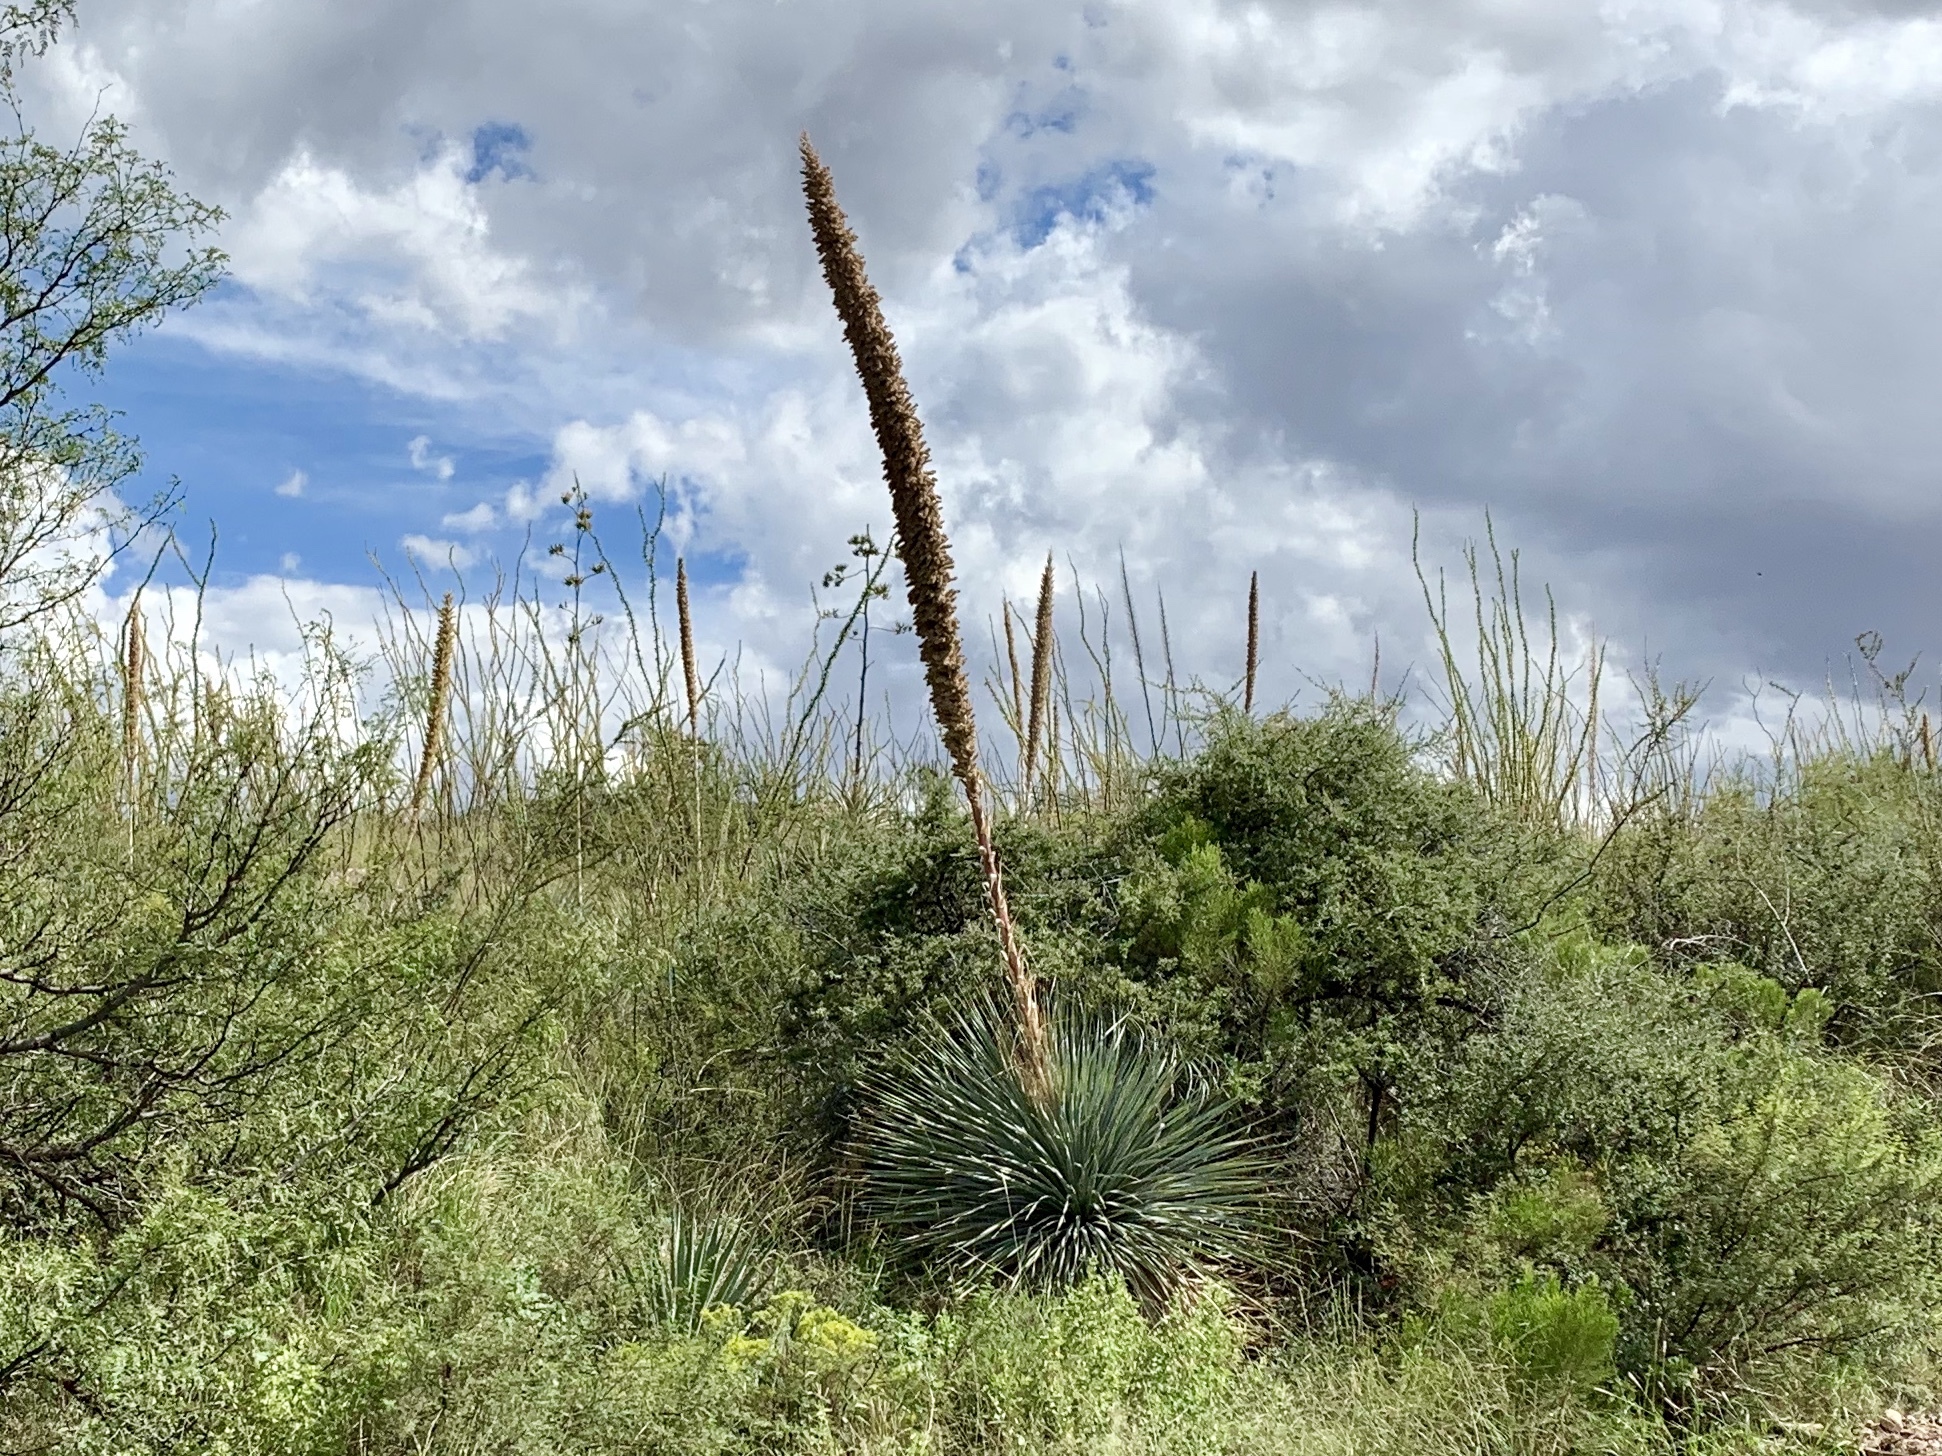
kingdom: Plantae
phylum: Tracheophyta
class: Liliopsida
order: Asparagales
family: Asparagaceae
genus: Dasylirion
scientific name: Dasylirion wheeleri
